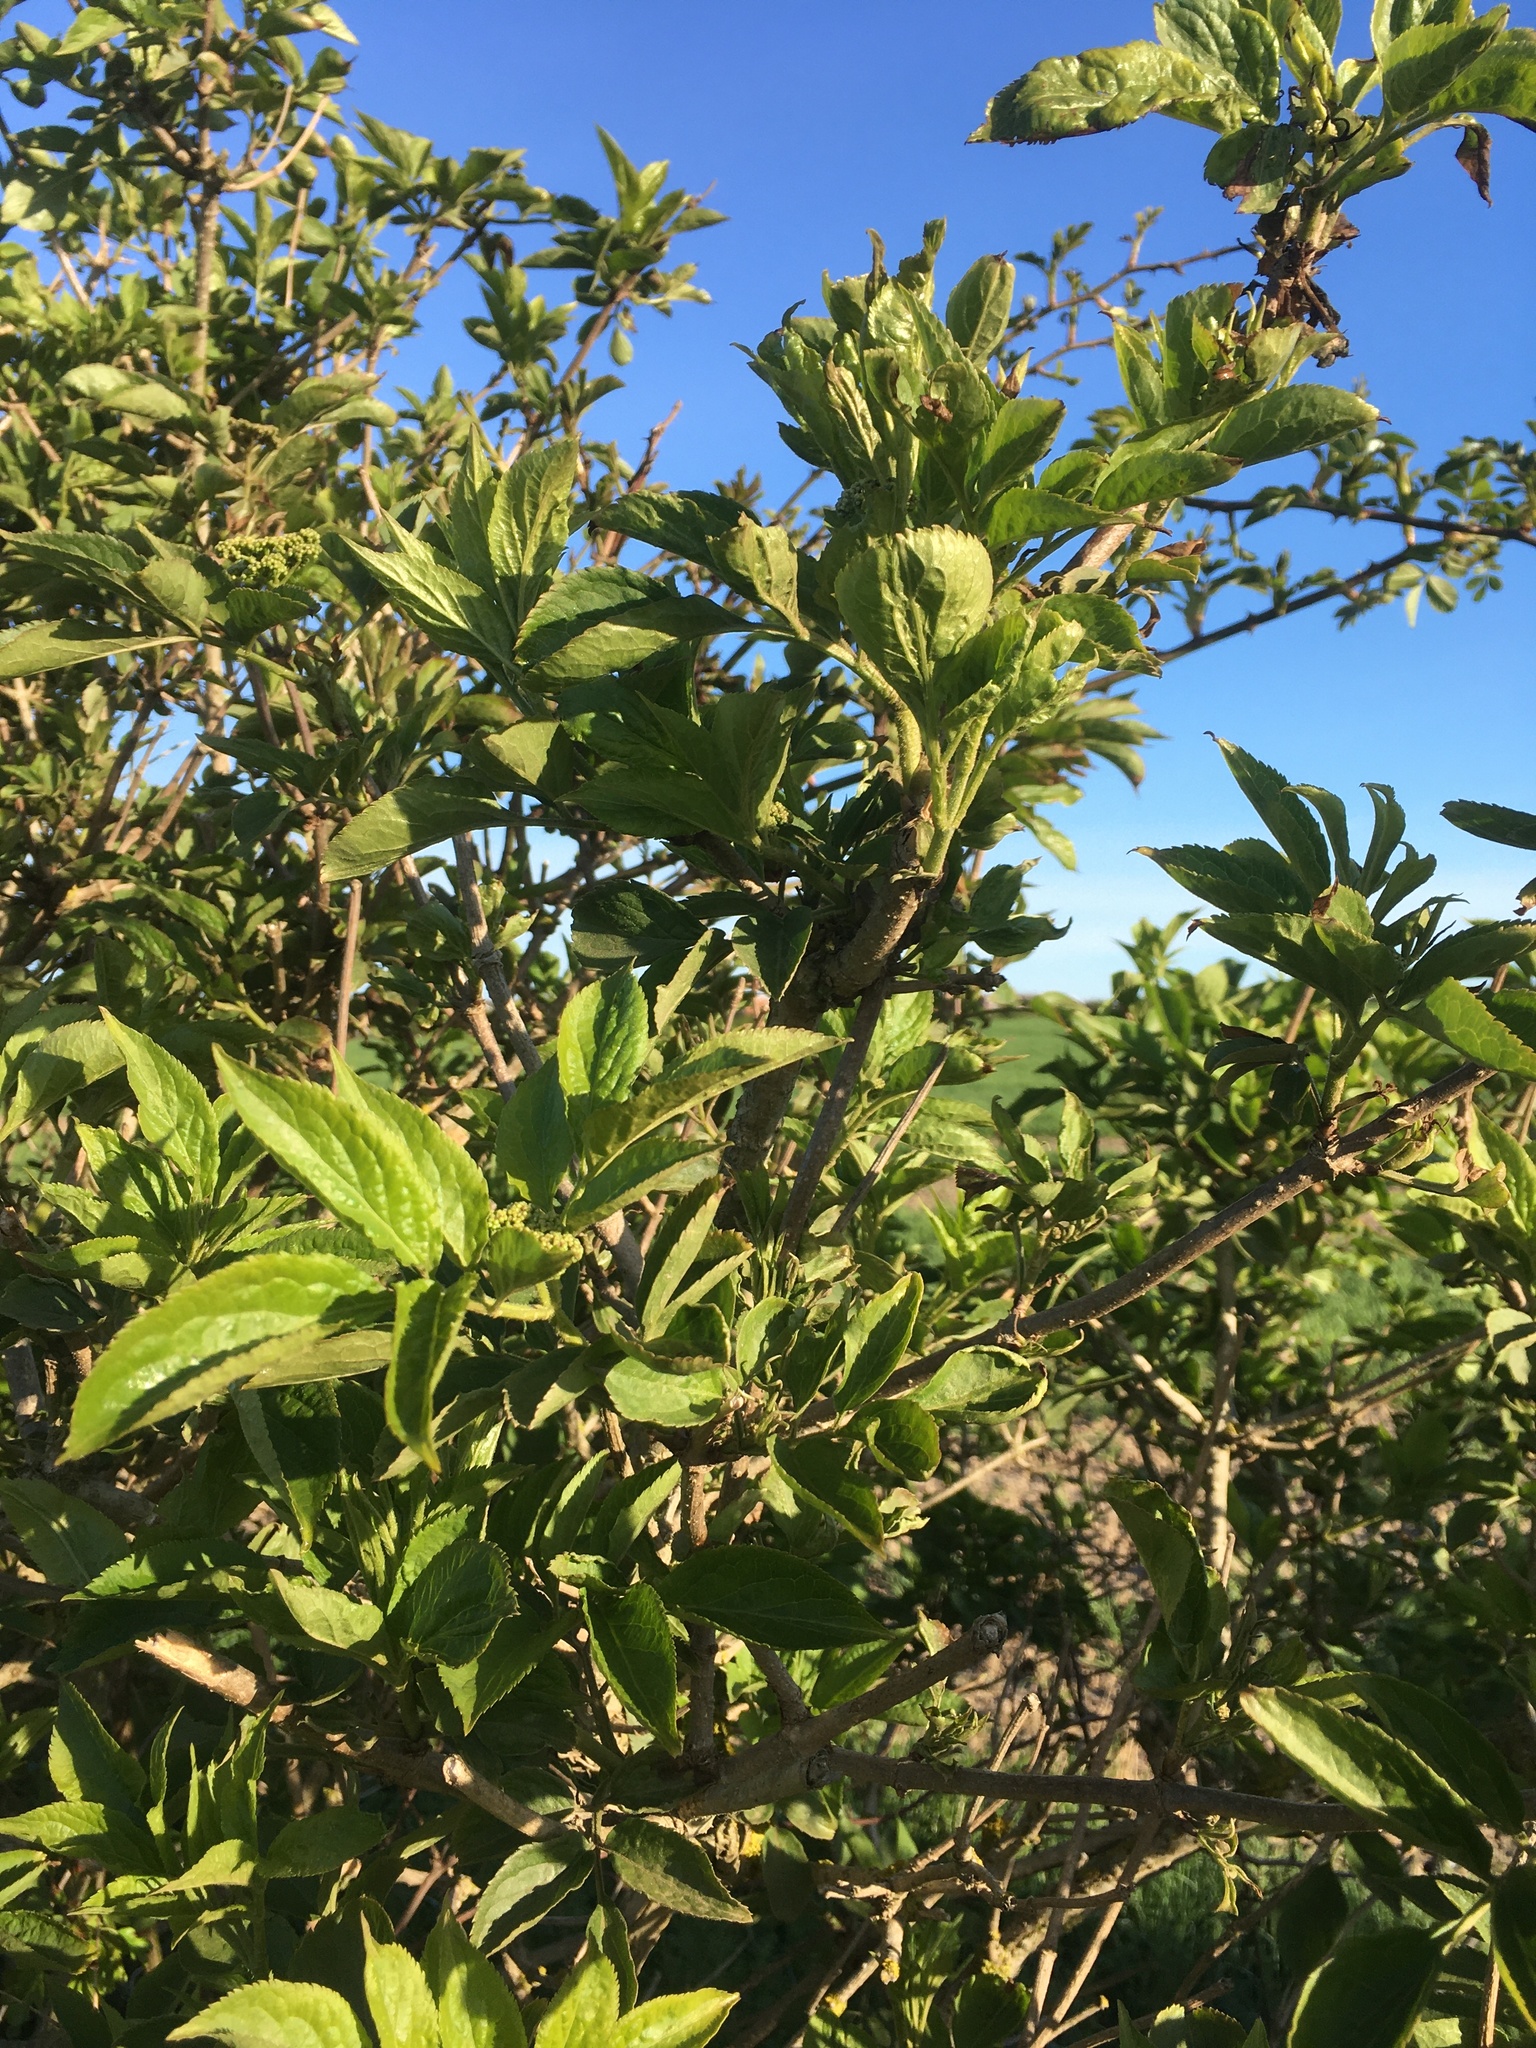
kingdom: Plantae
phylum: Tracheophyta
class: Magnoliopsida
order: Dipsacales
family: Viburnaceae
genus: Sambucus
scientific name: Sambucus nigra
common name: Elder
